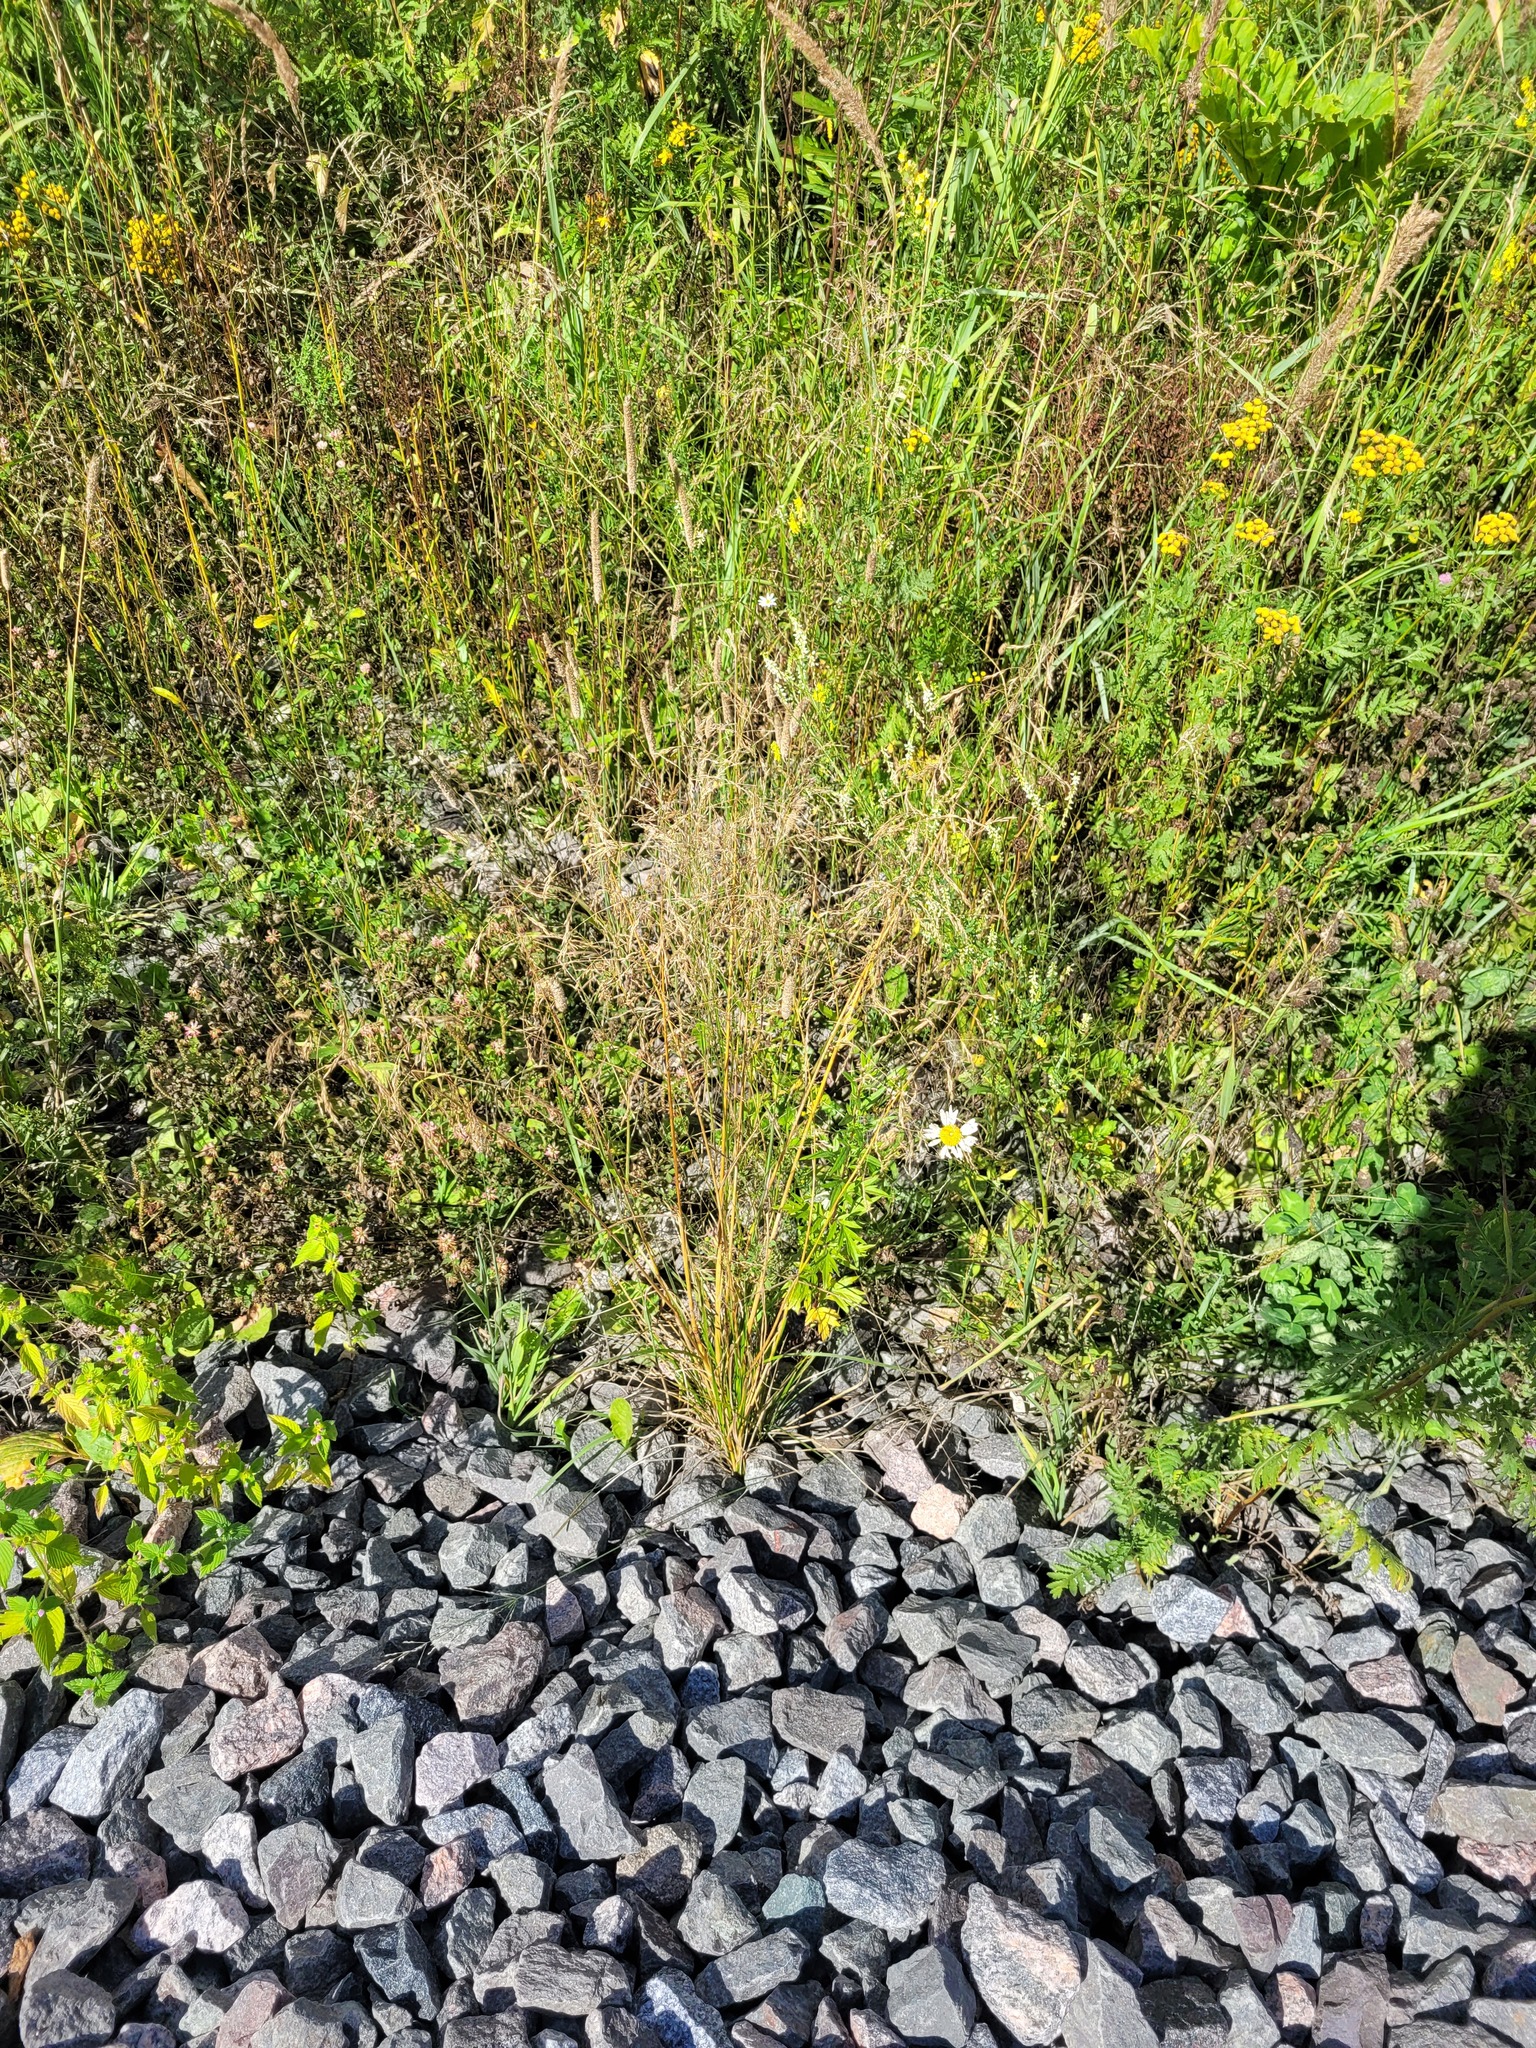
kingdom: Plantae
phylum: Tracheophyta
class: Liliopsida
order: Poales
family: Poaceae
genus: Deschampsia
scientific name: Deschampsia cespitosa
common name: Tufted hair-grass
